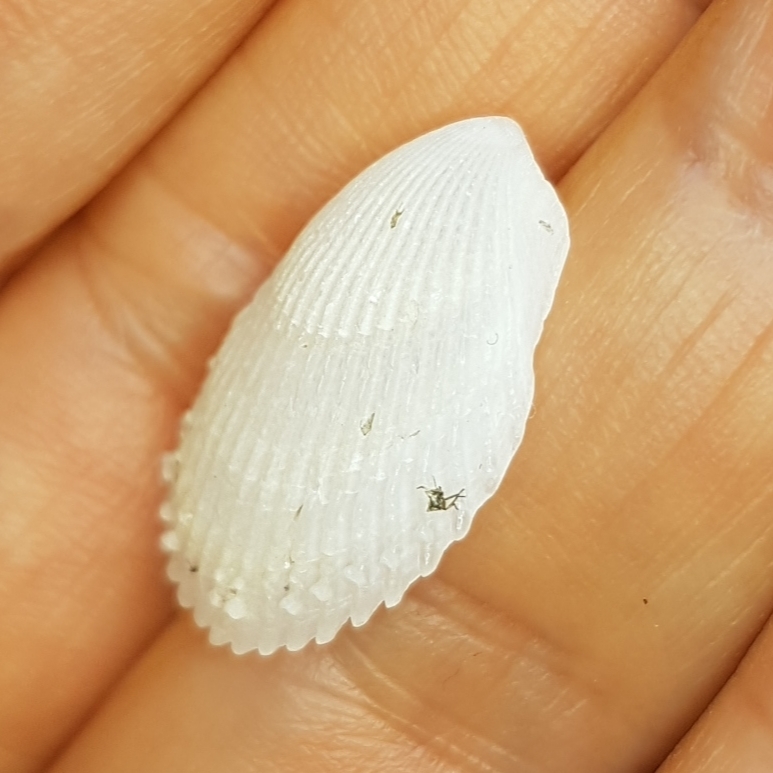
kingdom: Animalia
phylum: Mollusca
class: Bivalvia
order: Limida
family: Limidae
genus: Lima
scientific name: Lima lima
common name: Frilled file shell
